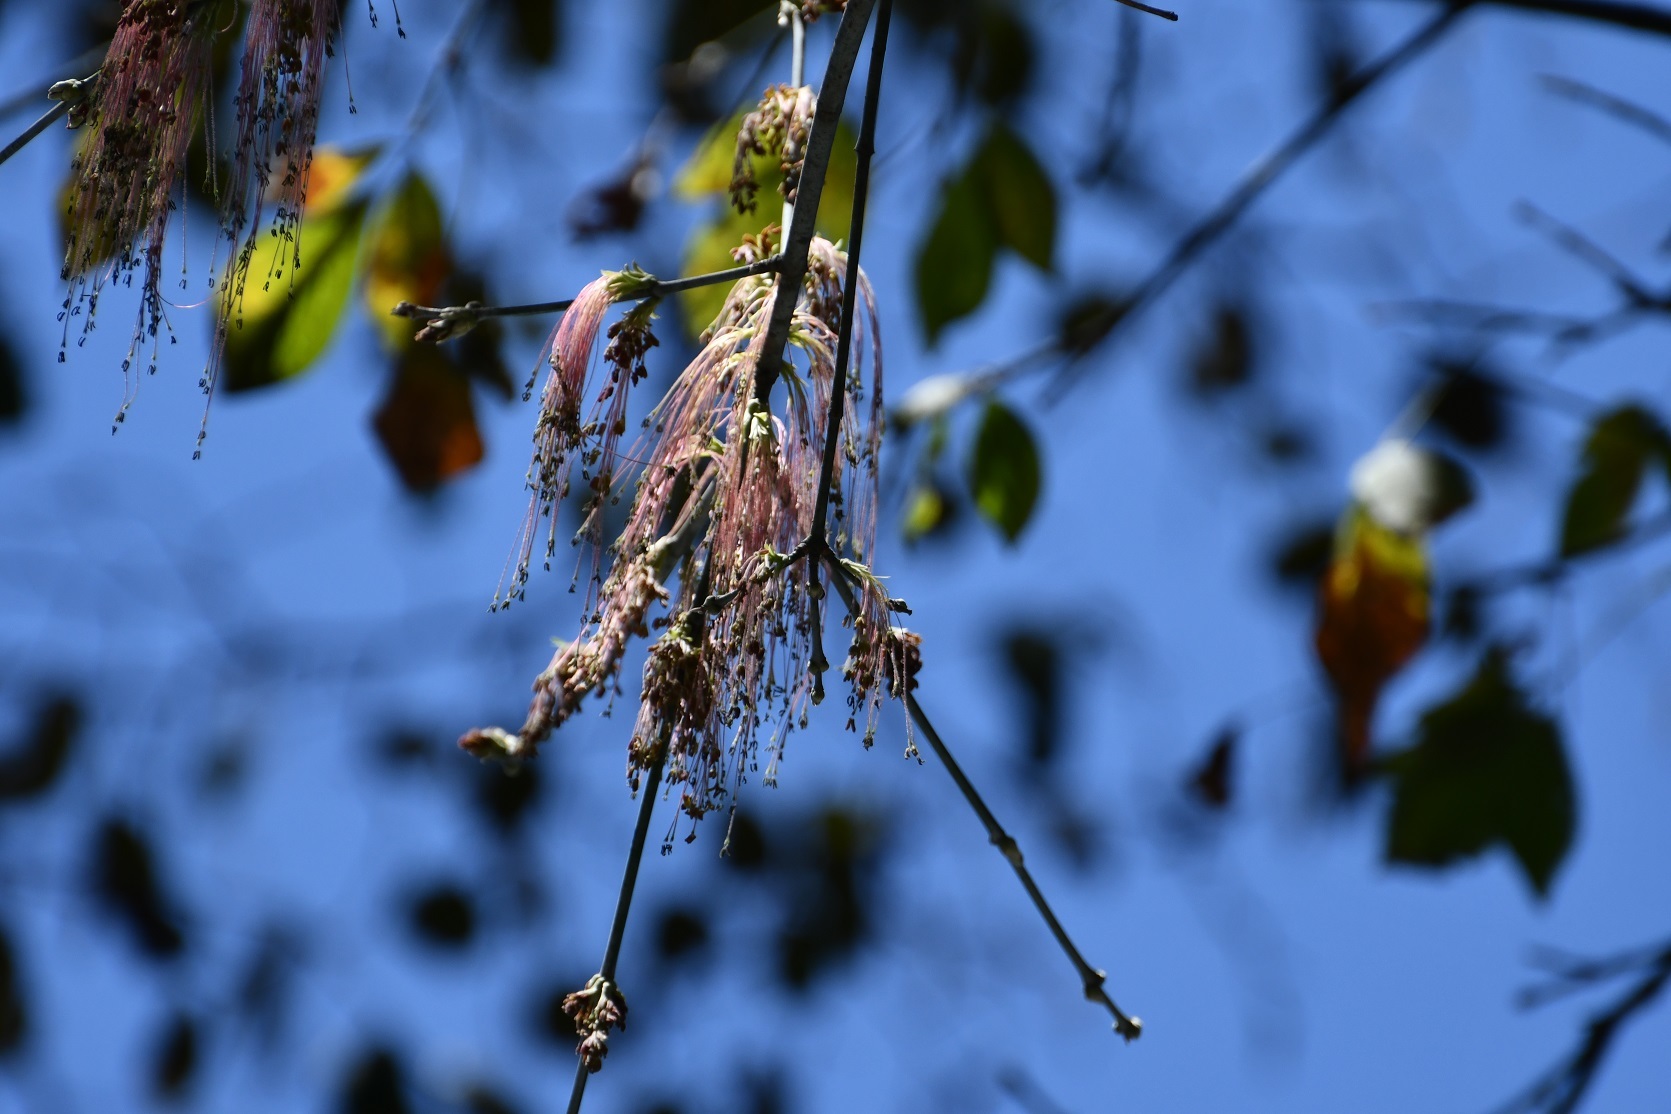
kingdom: Plantae
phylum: Tracheophyta
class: Magnoliopsida
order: Sapindales
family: Sapindaceae
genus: Acer
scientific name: Acer negundo
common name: Ashleaf maple
